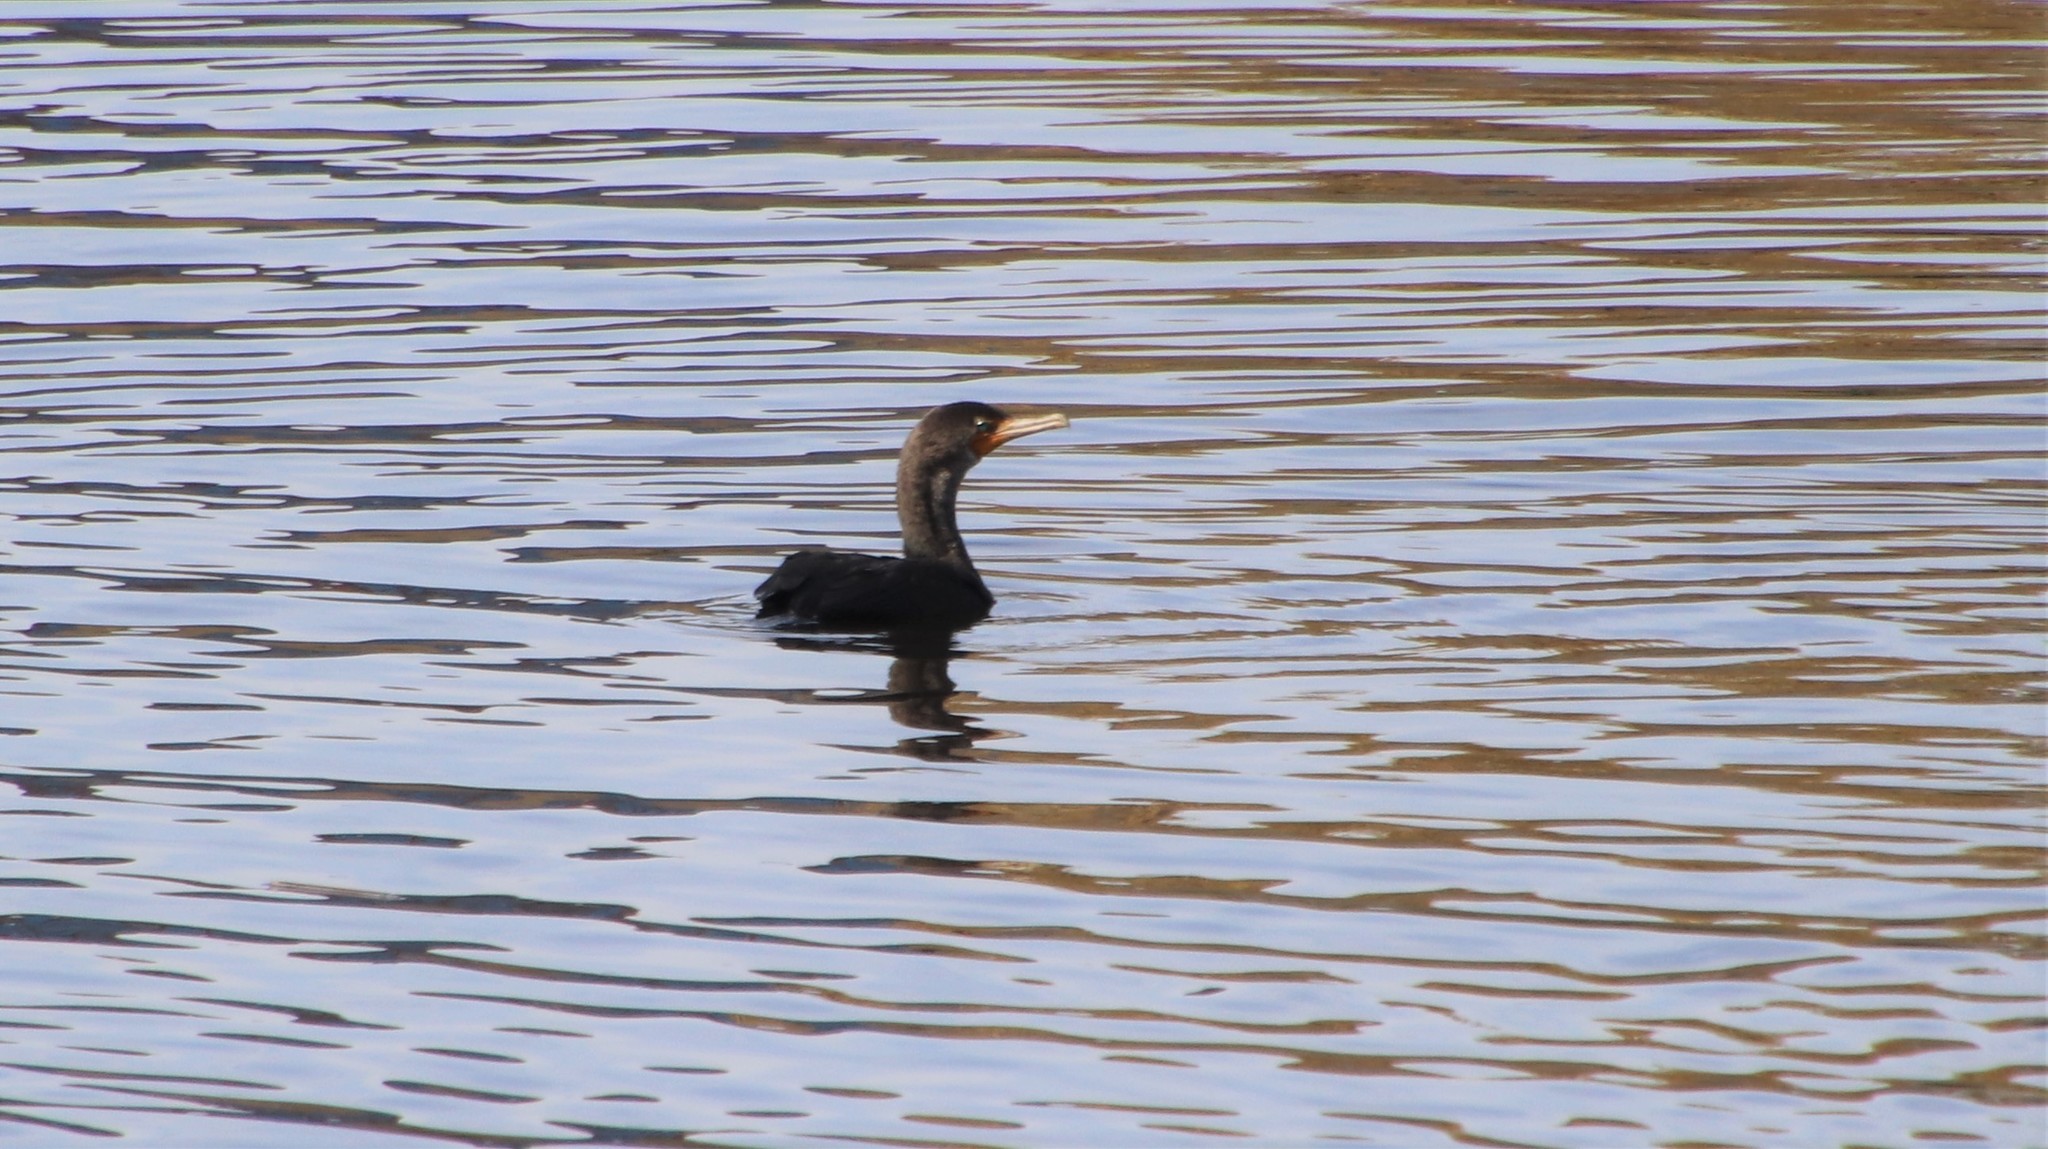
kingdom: Animalia
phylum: Chordata
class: Aves
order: Suliformes
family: Phalacrocoracidae
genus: Phalacrocorax
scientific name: Phalacrocorax auritus
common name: Double-crested cormorant
